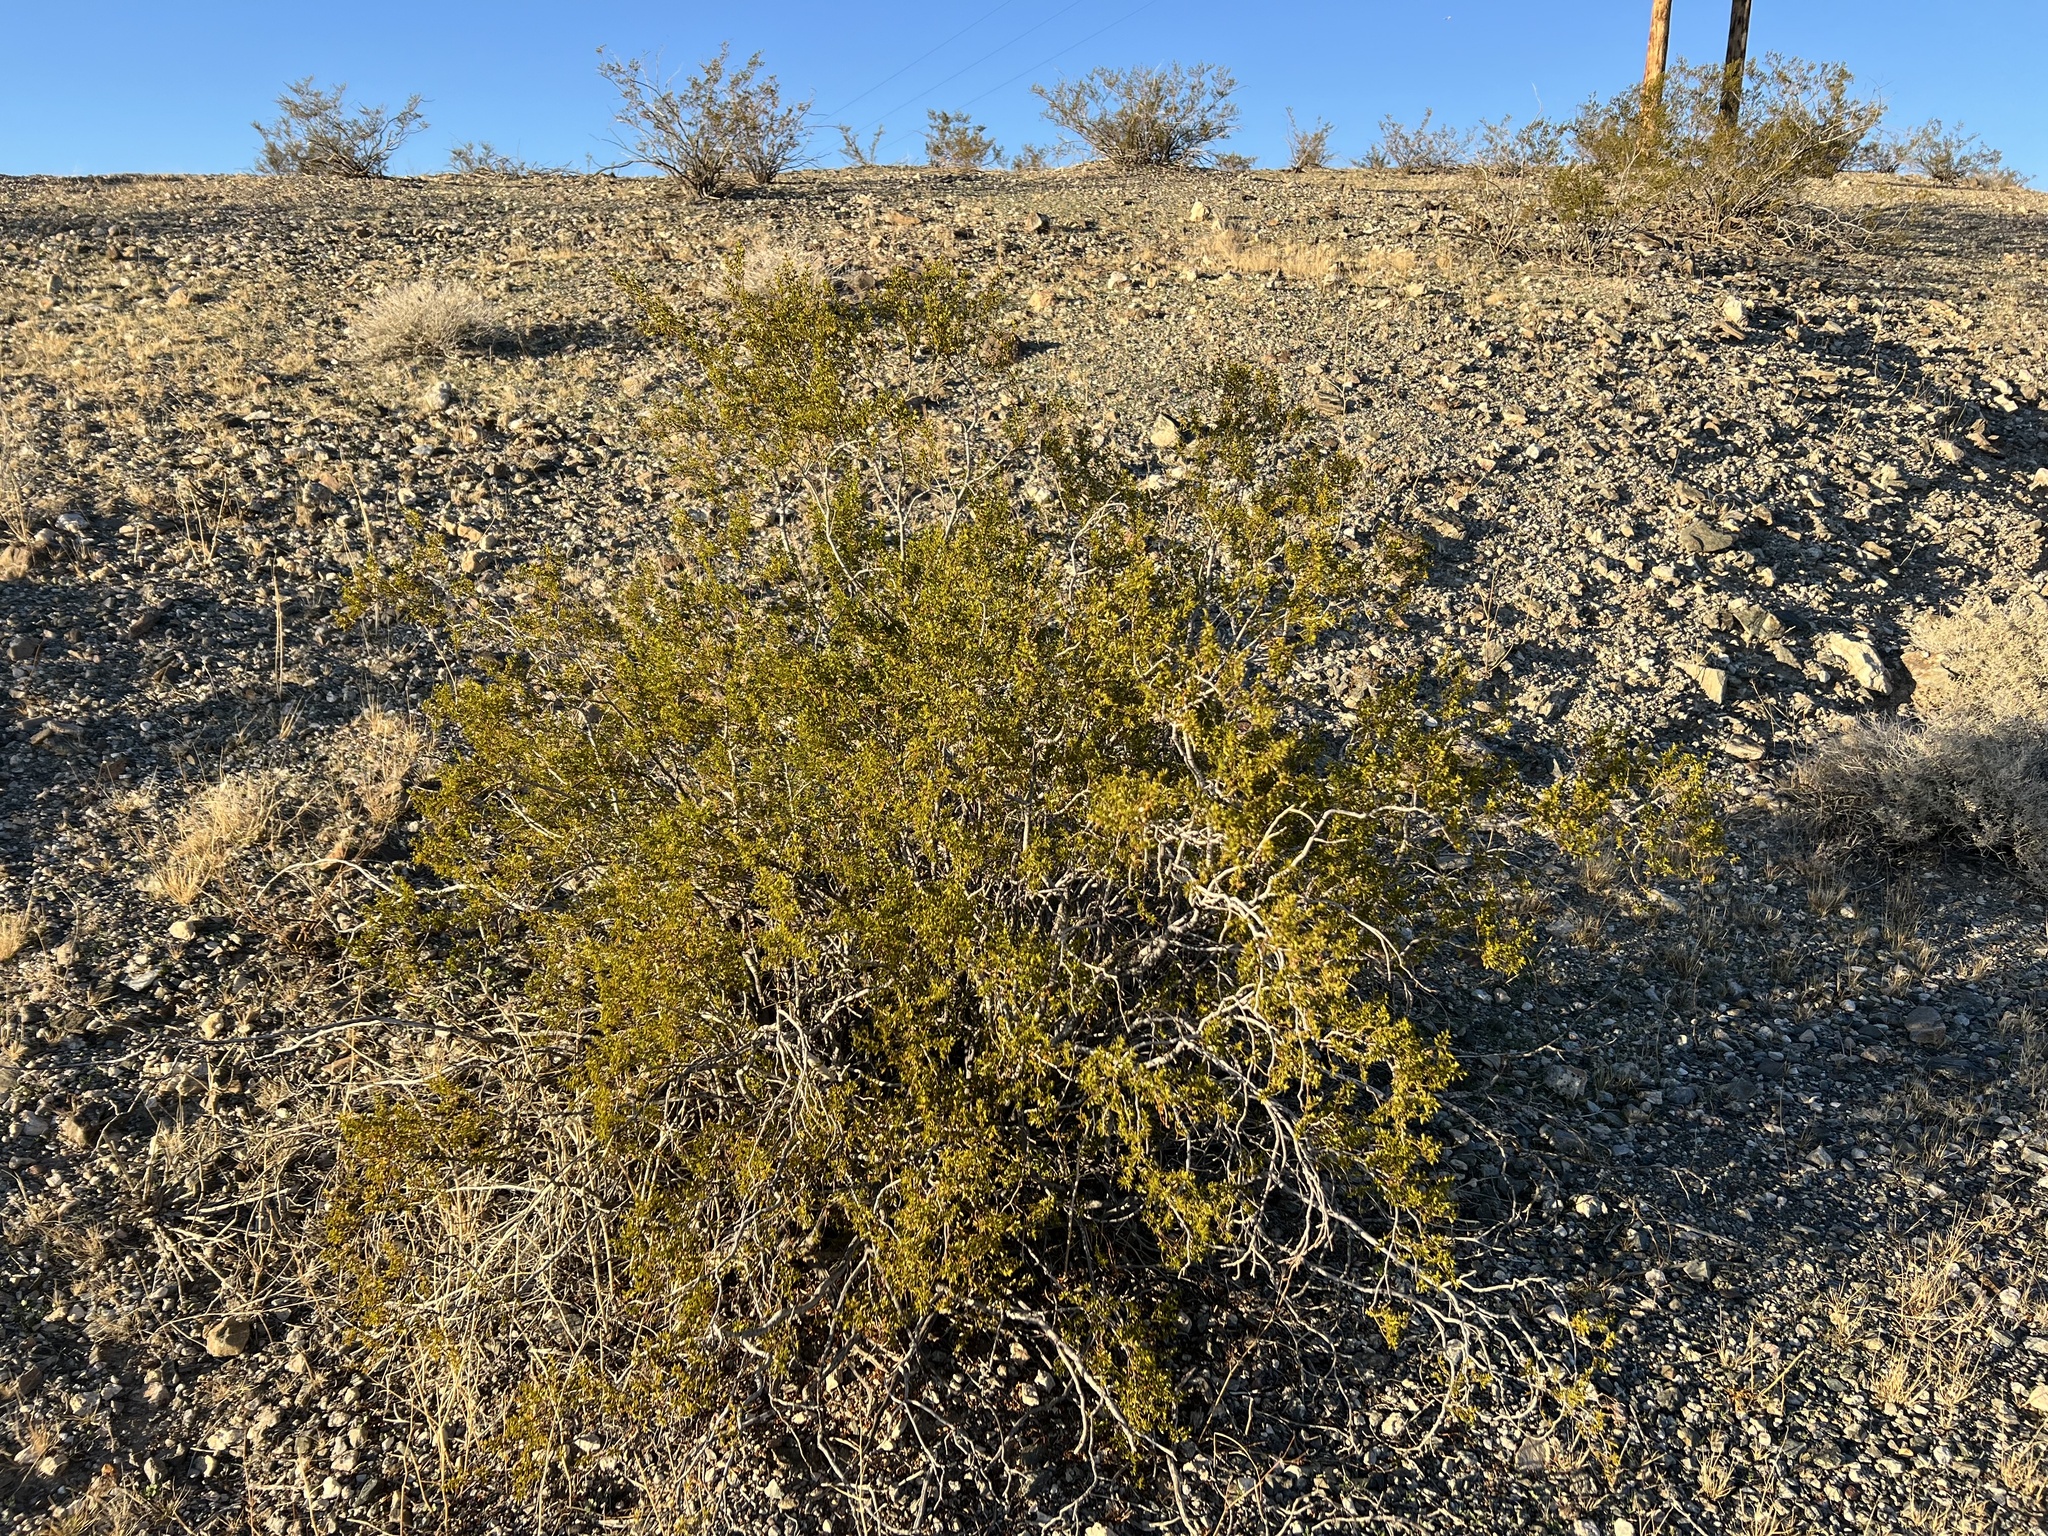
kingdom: Plantae
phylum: Tracheophyta
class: Magnoliopsida
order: Zygophyllales
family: Zygophyllaceae
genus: Larrea
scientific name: Larrea tridentata
